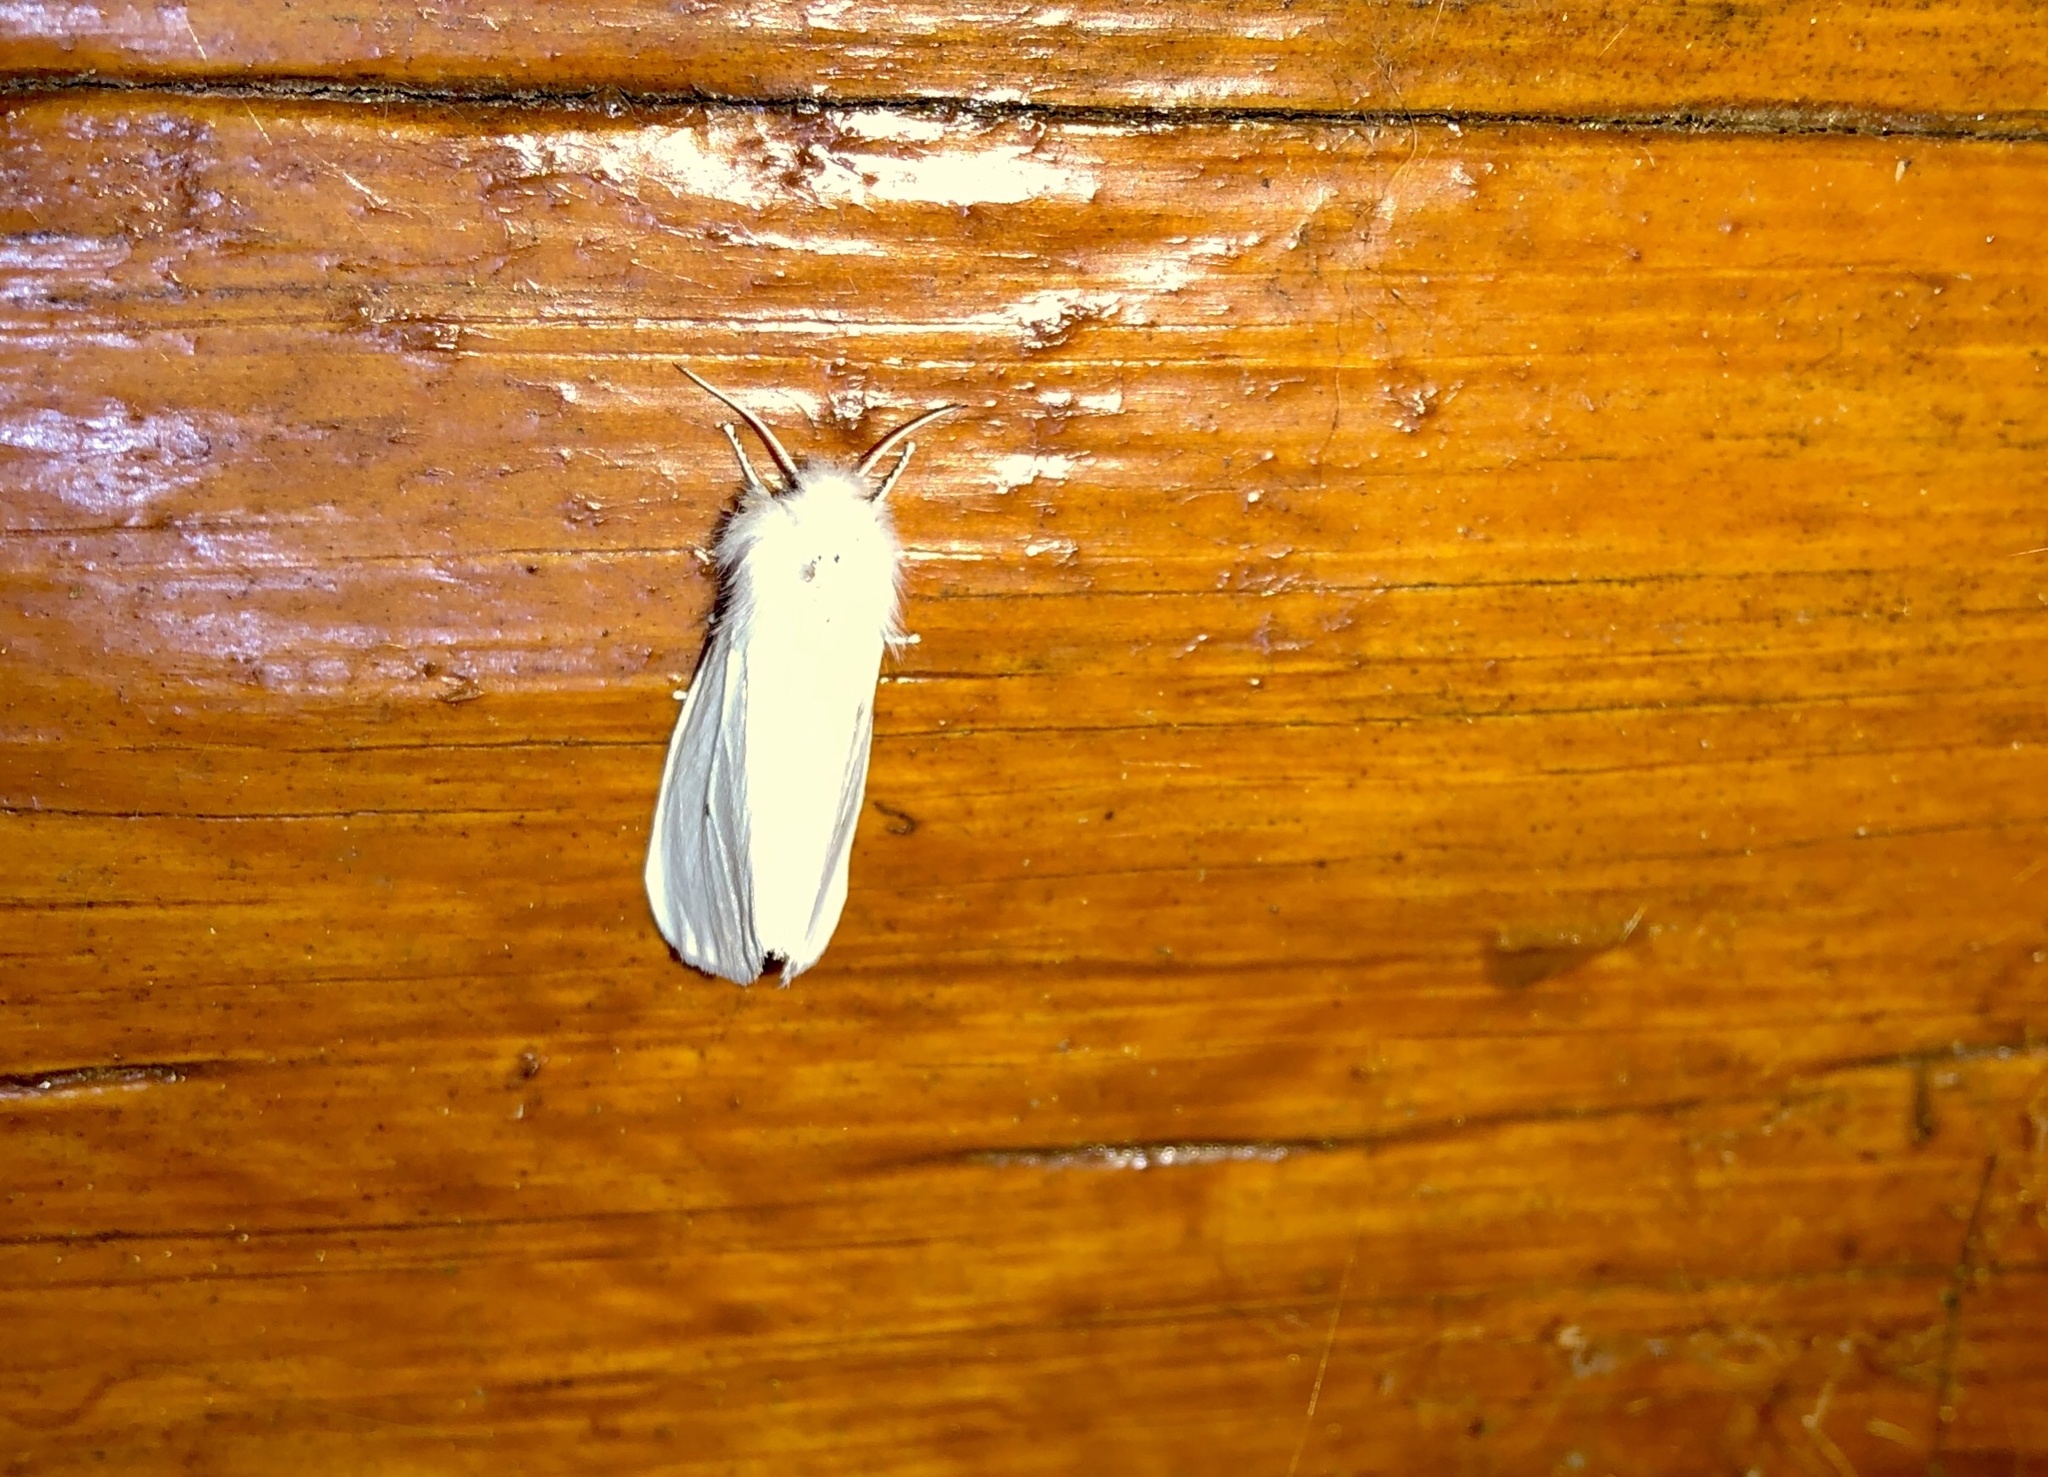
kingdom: Animalia
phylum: Arthropoda
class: Insecta
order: Lepidoptera
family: Erebidae
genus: Spilosoma
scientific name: Spilosoma virginica
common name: Virginia tiger moth
